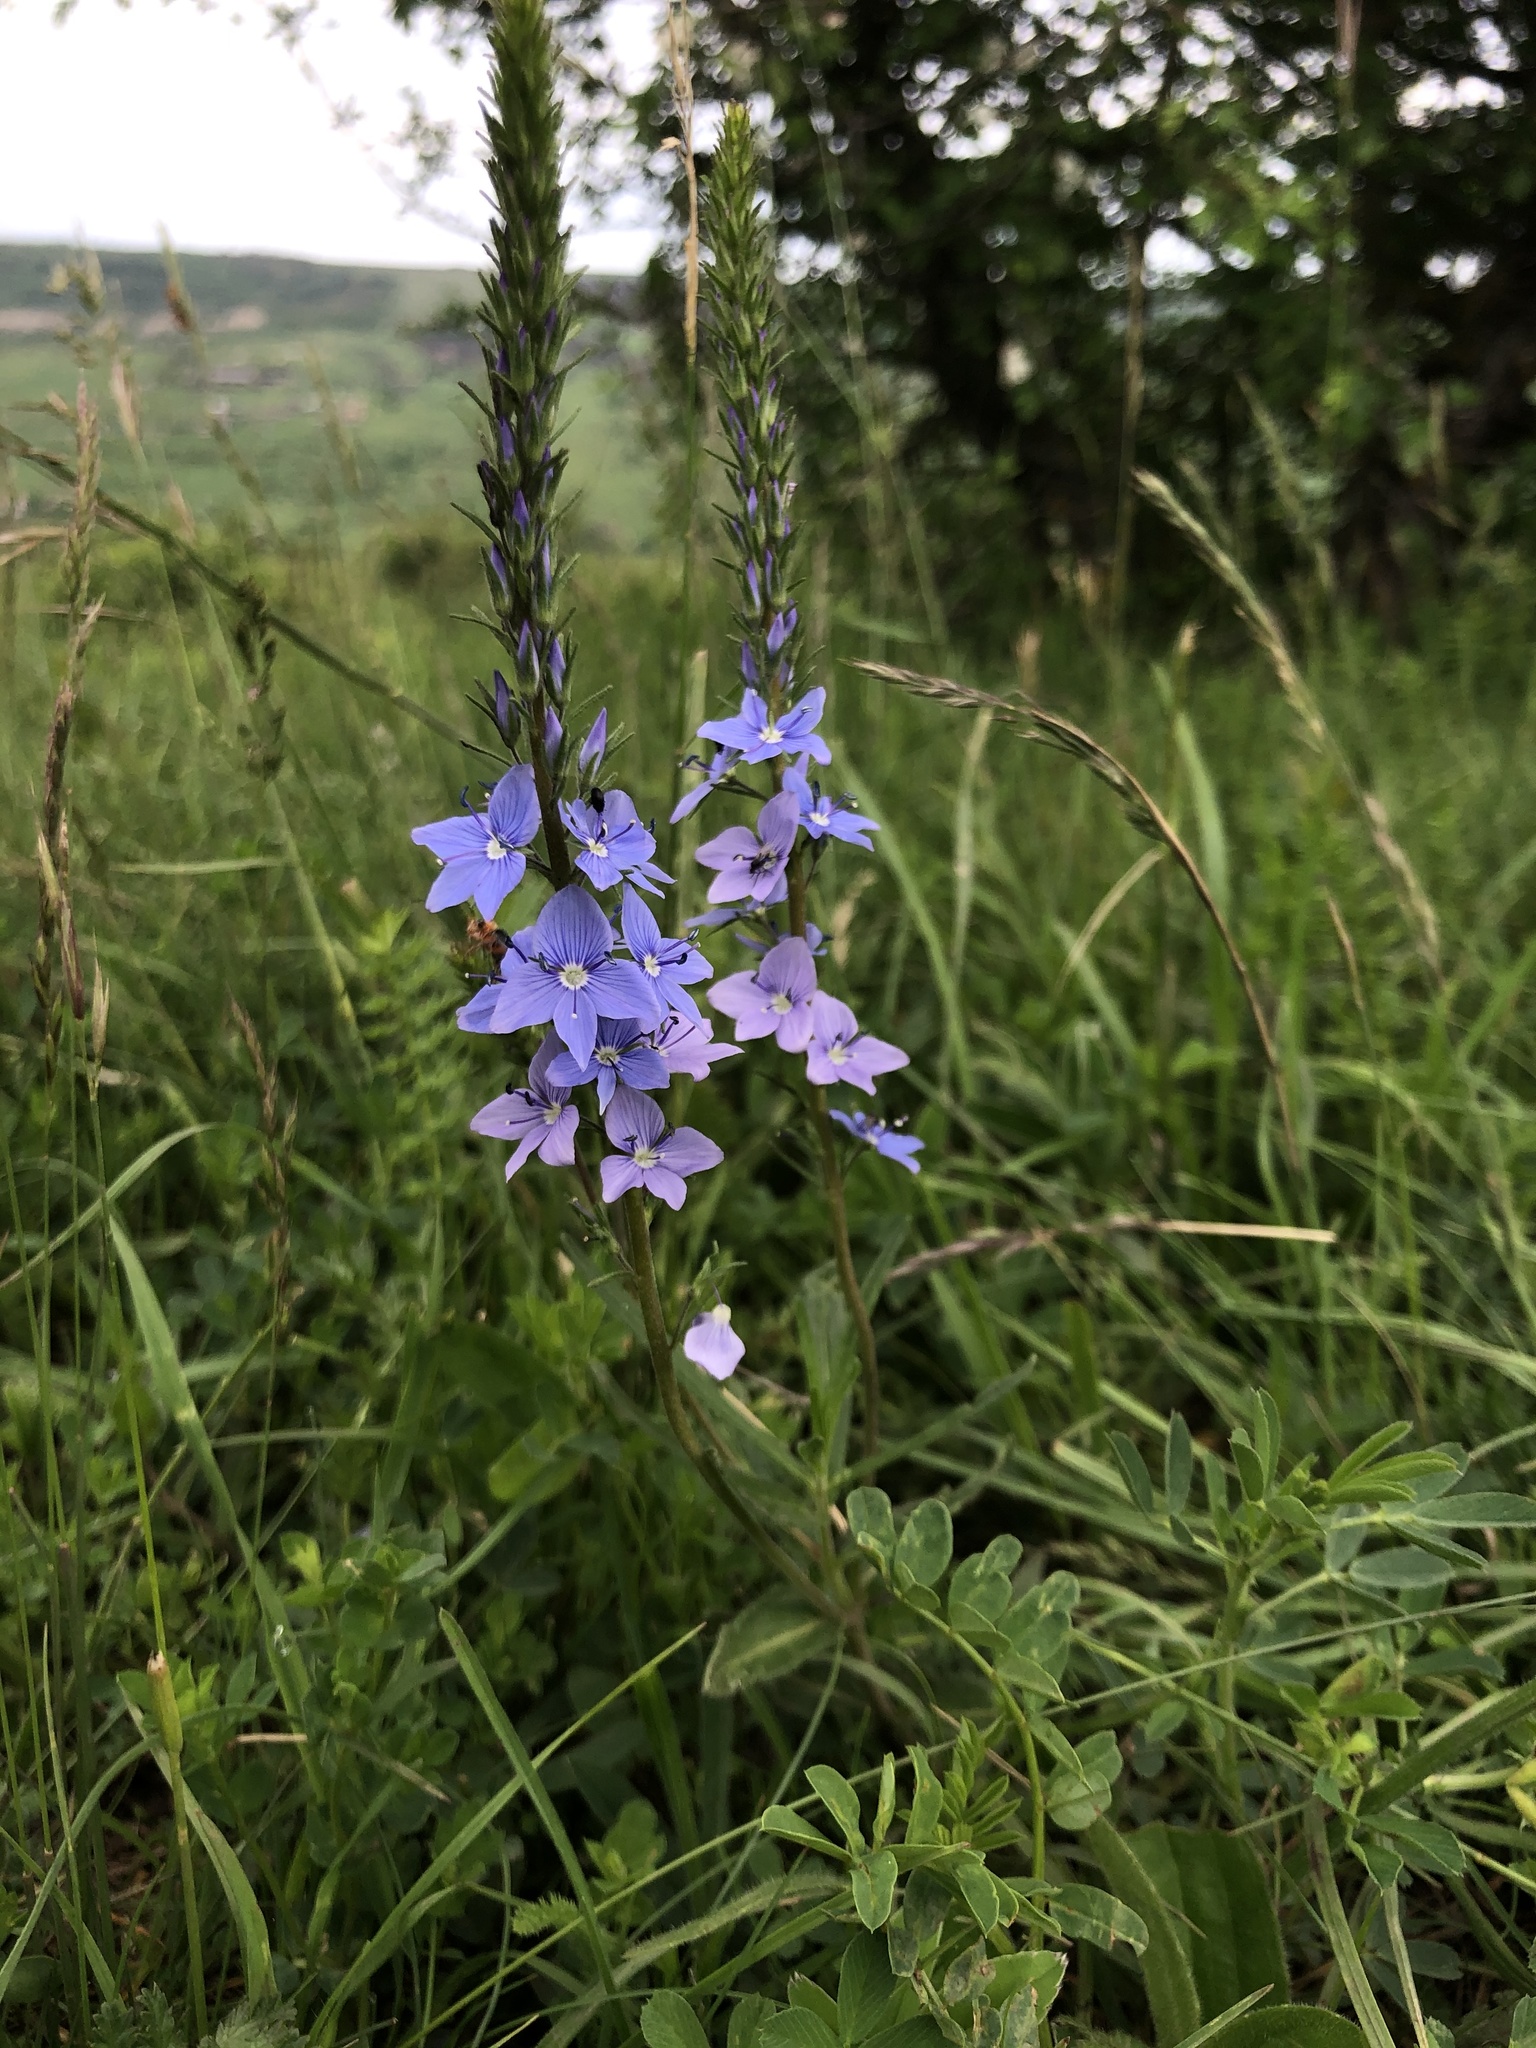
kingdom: Plantae
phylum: Tracheophyta
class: Magnoliopsida
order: Lamiales
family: Plantaginaceae
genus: Veronica
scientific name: Veronica austriaca
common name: Large speedwell
